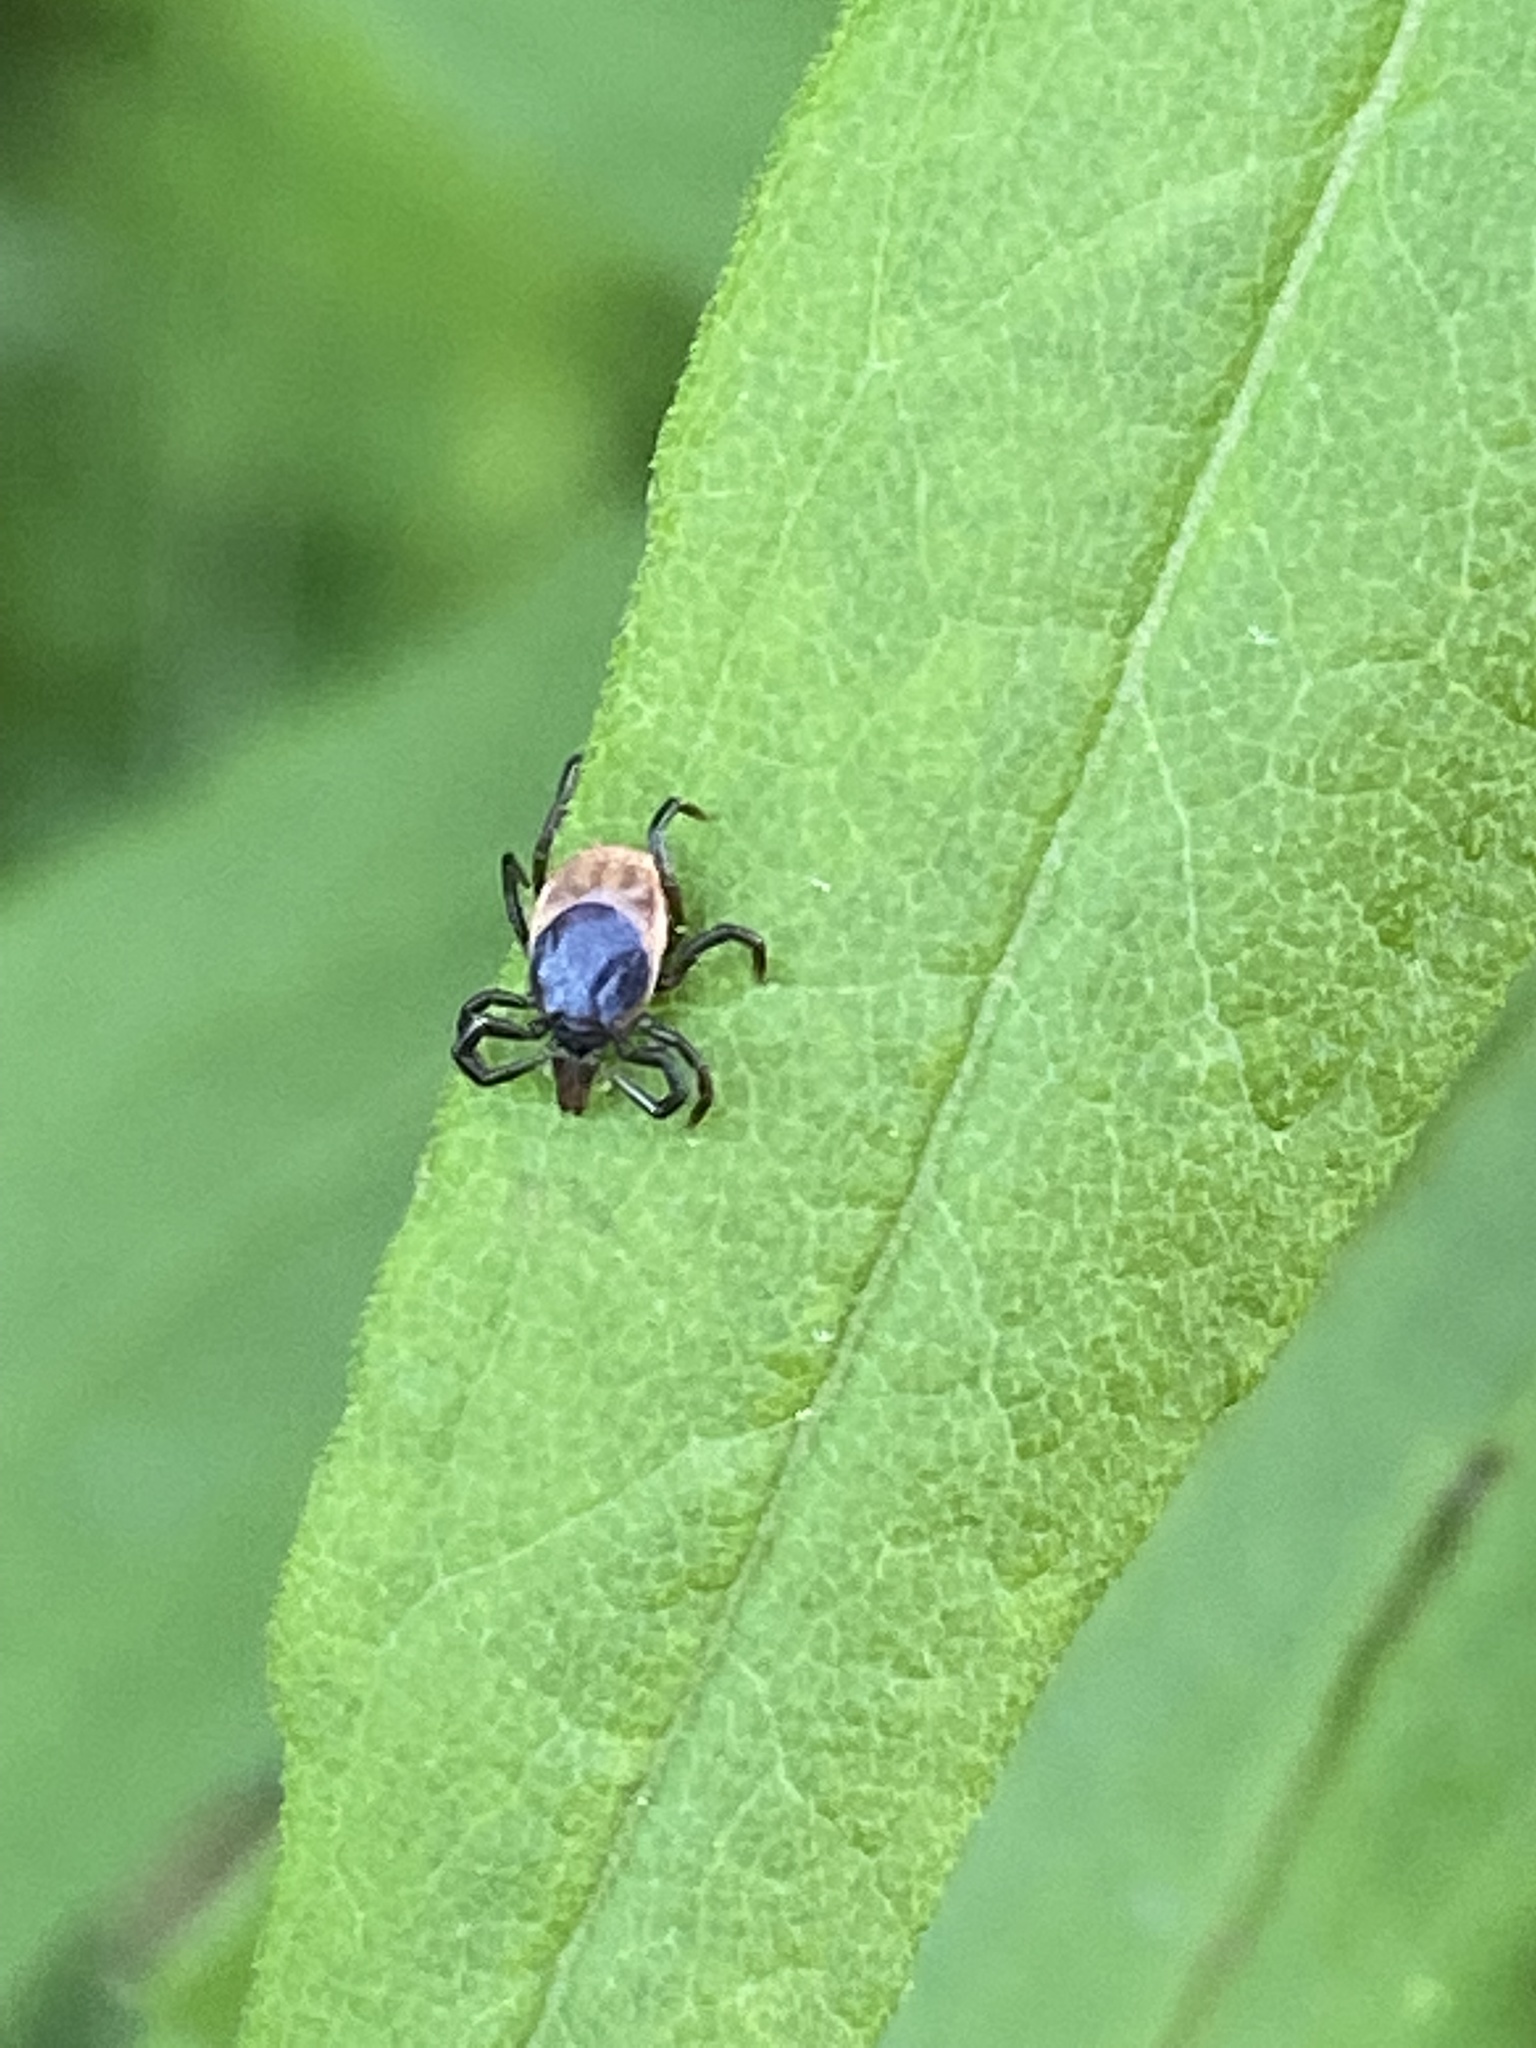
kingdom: Animalia
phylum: Arthropoda
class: Arachnida
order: Ixodida
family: Ixodidae
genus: Ixodes
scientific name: Ixodes scapularis
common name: Black legged tick
